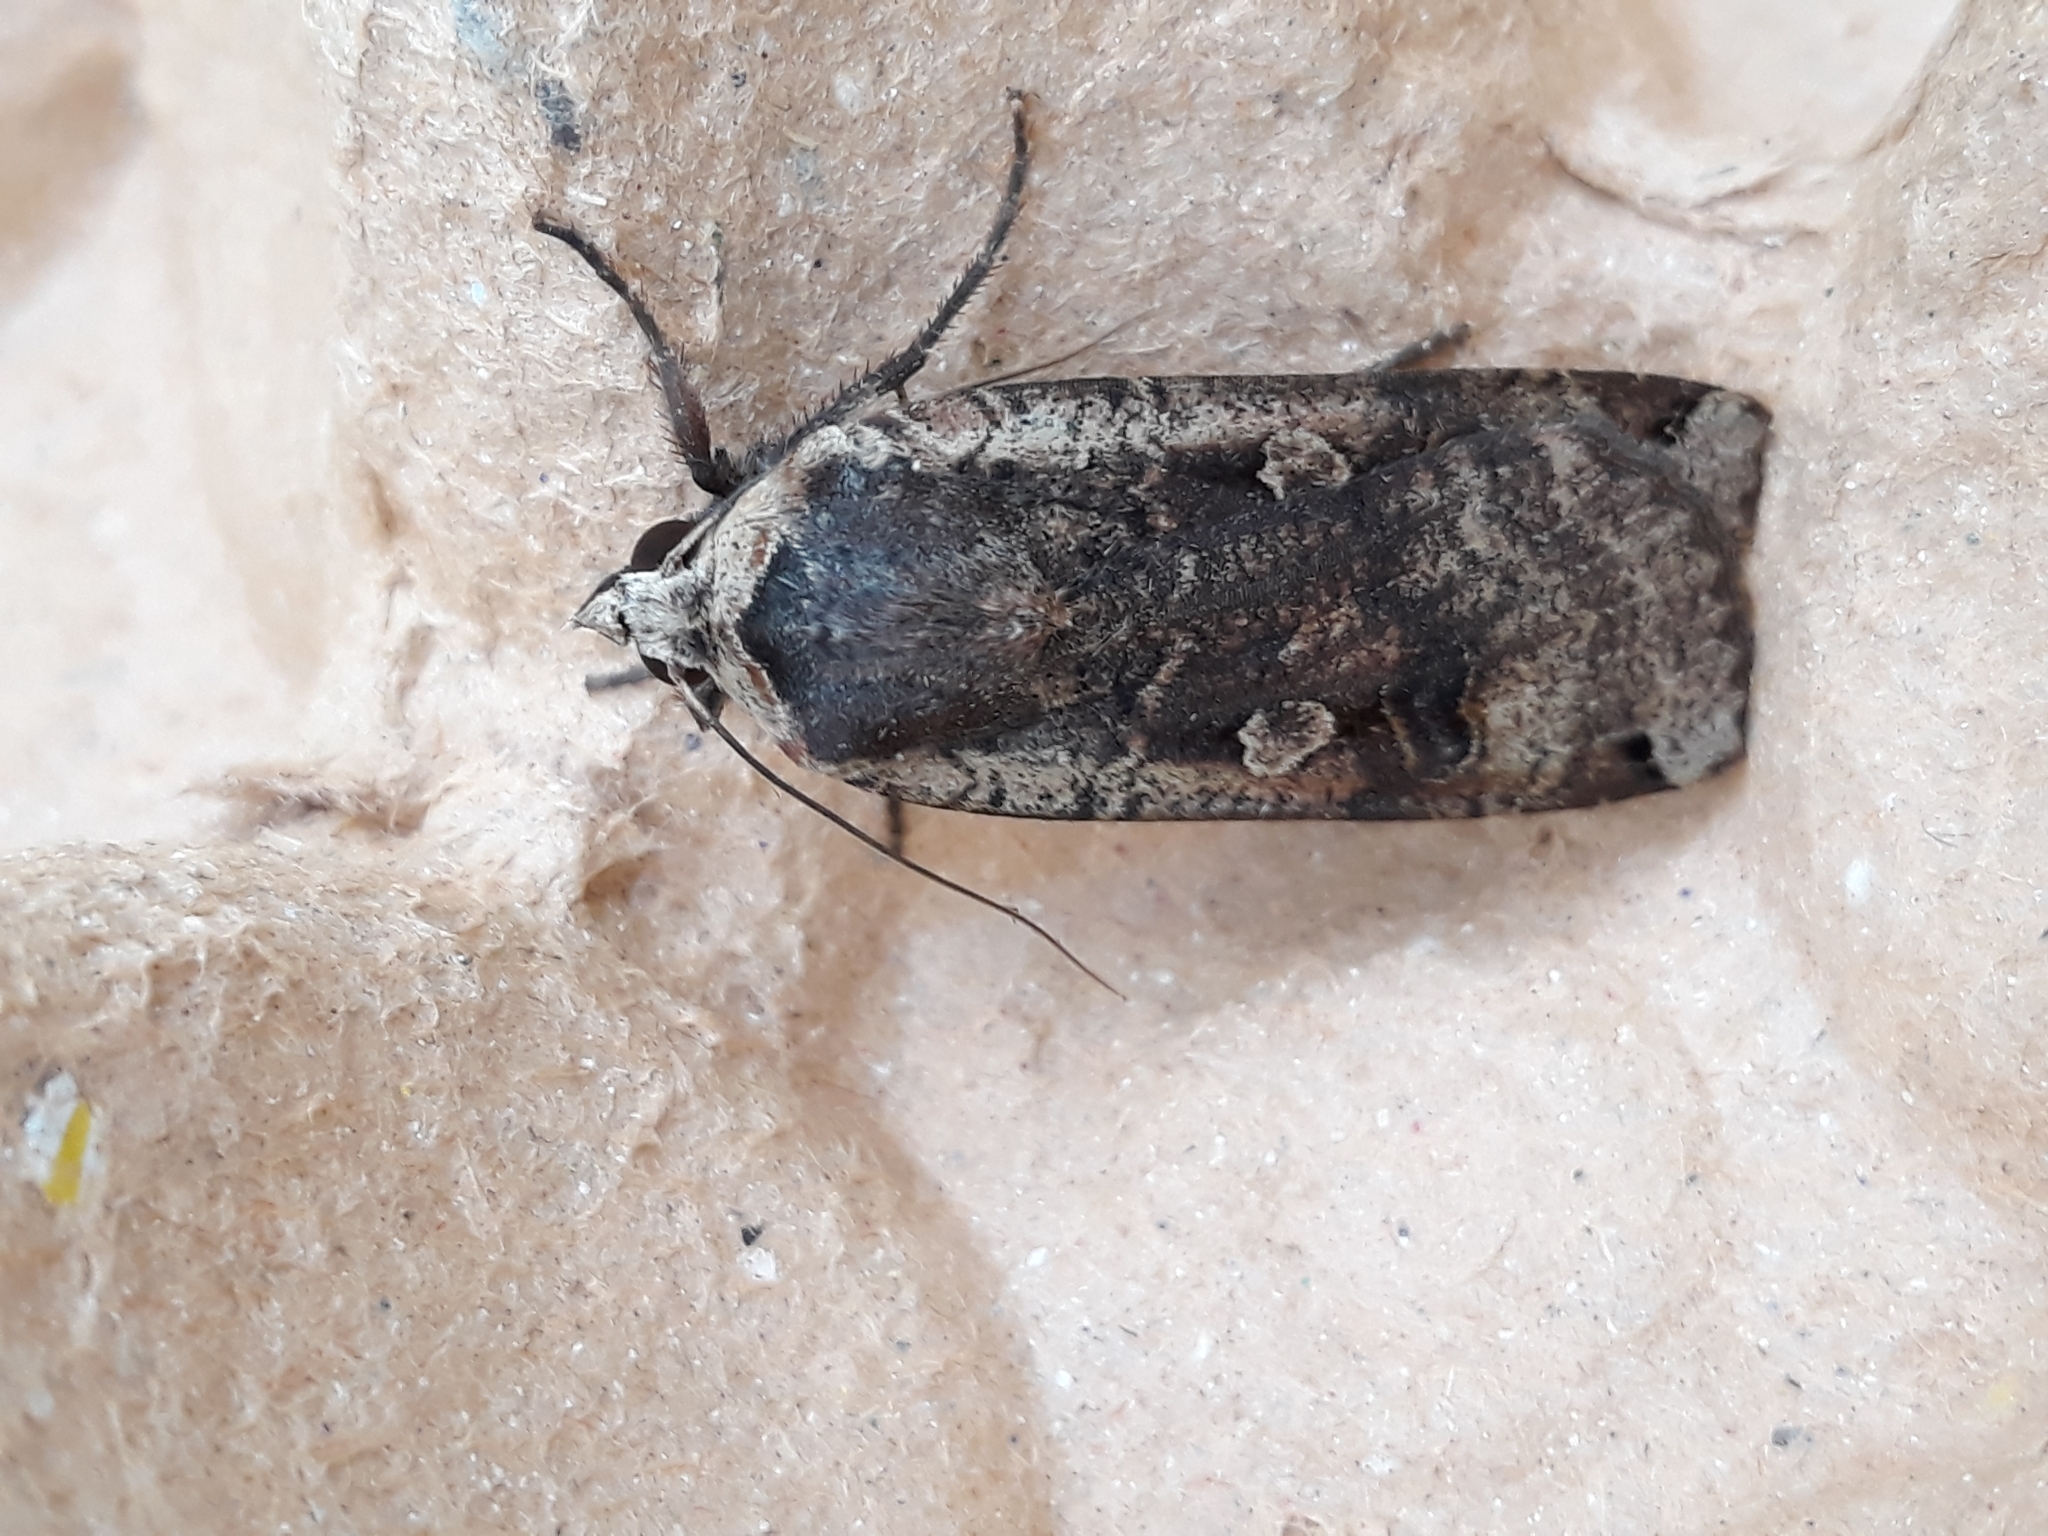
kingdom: Animalia
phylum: Arthropoda
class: Insecta
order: Lepidoptera
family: Noctuidae
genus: Noctua
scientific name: Noctua janthe
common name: Lesser broad-bordered yellow underwing
